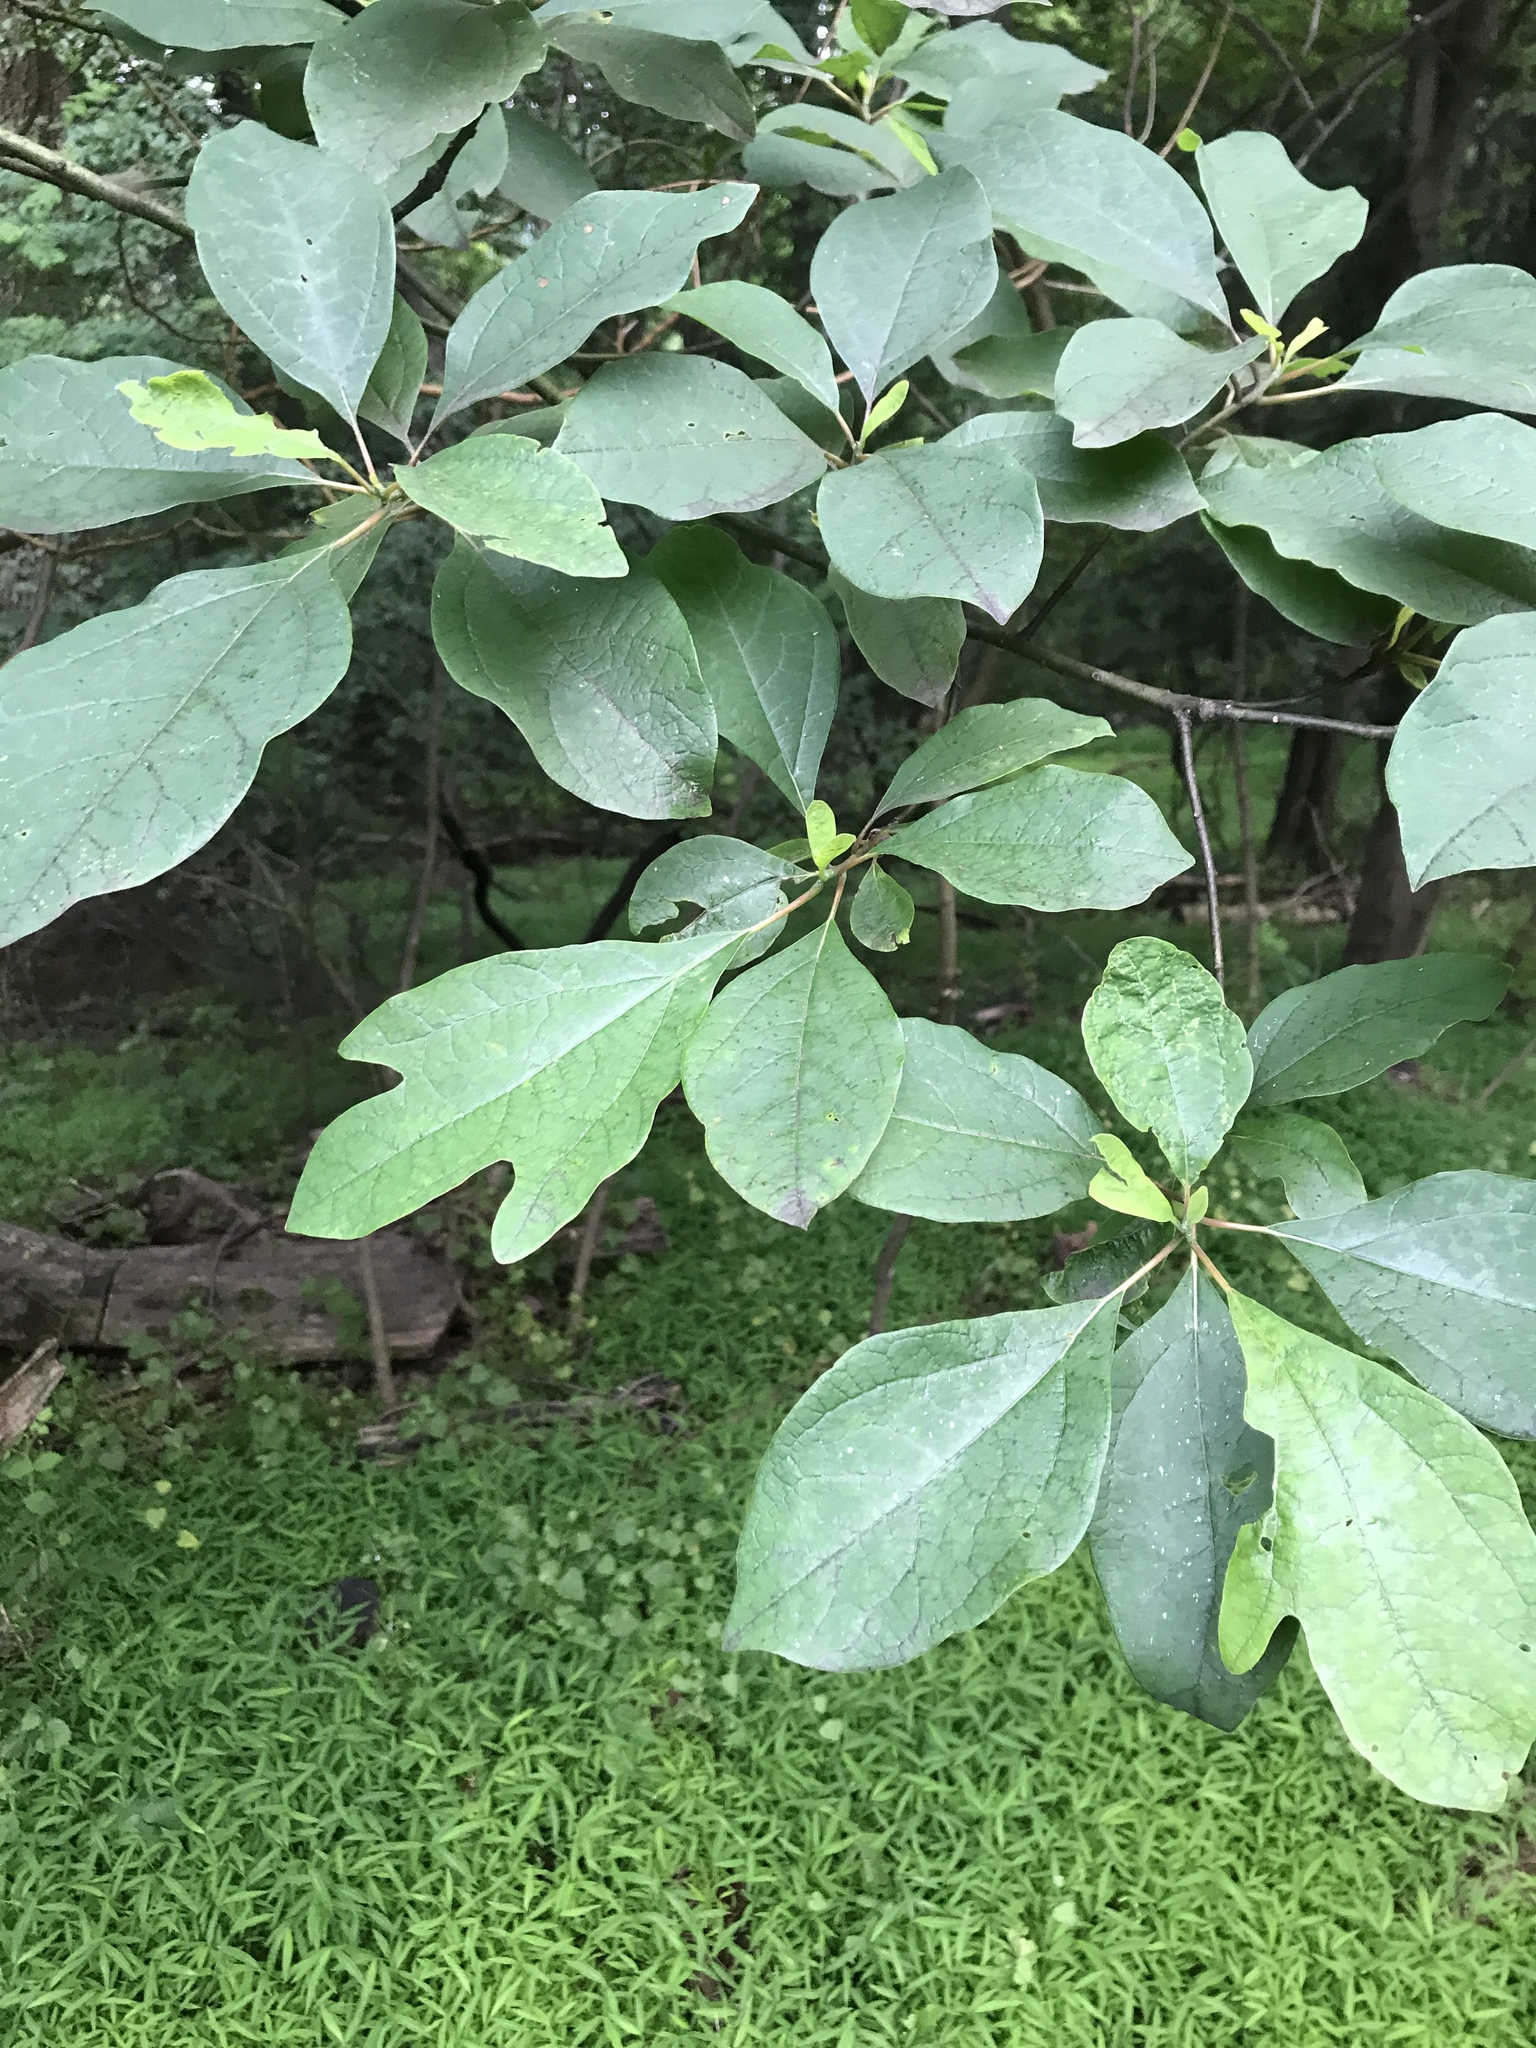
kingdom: Plantae
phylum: Tracheophyta
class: Magnoliopsida
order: Laurales
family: Lauraceae
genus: Sassafras
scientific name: Sassafras albidum
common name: Sassafras
